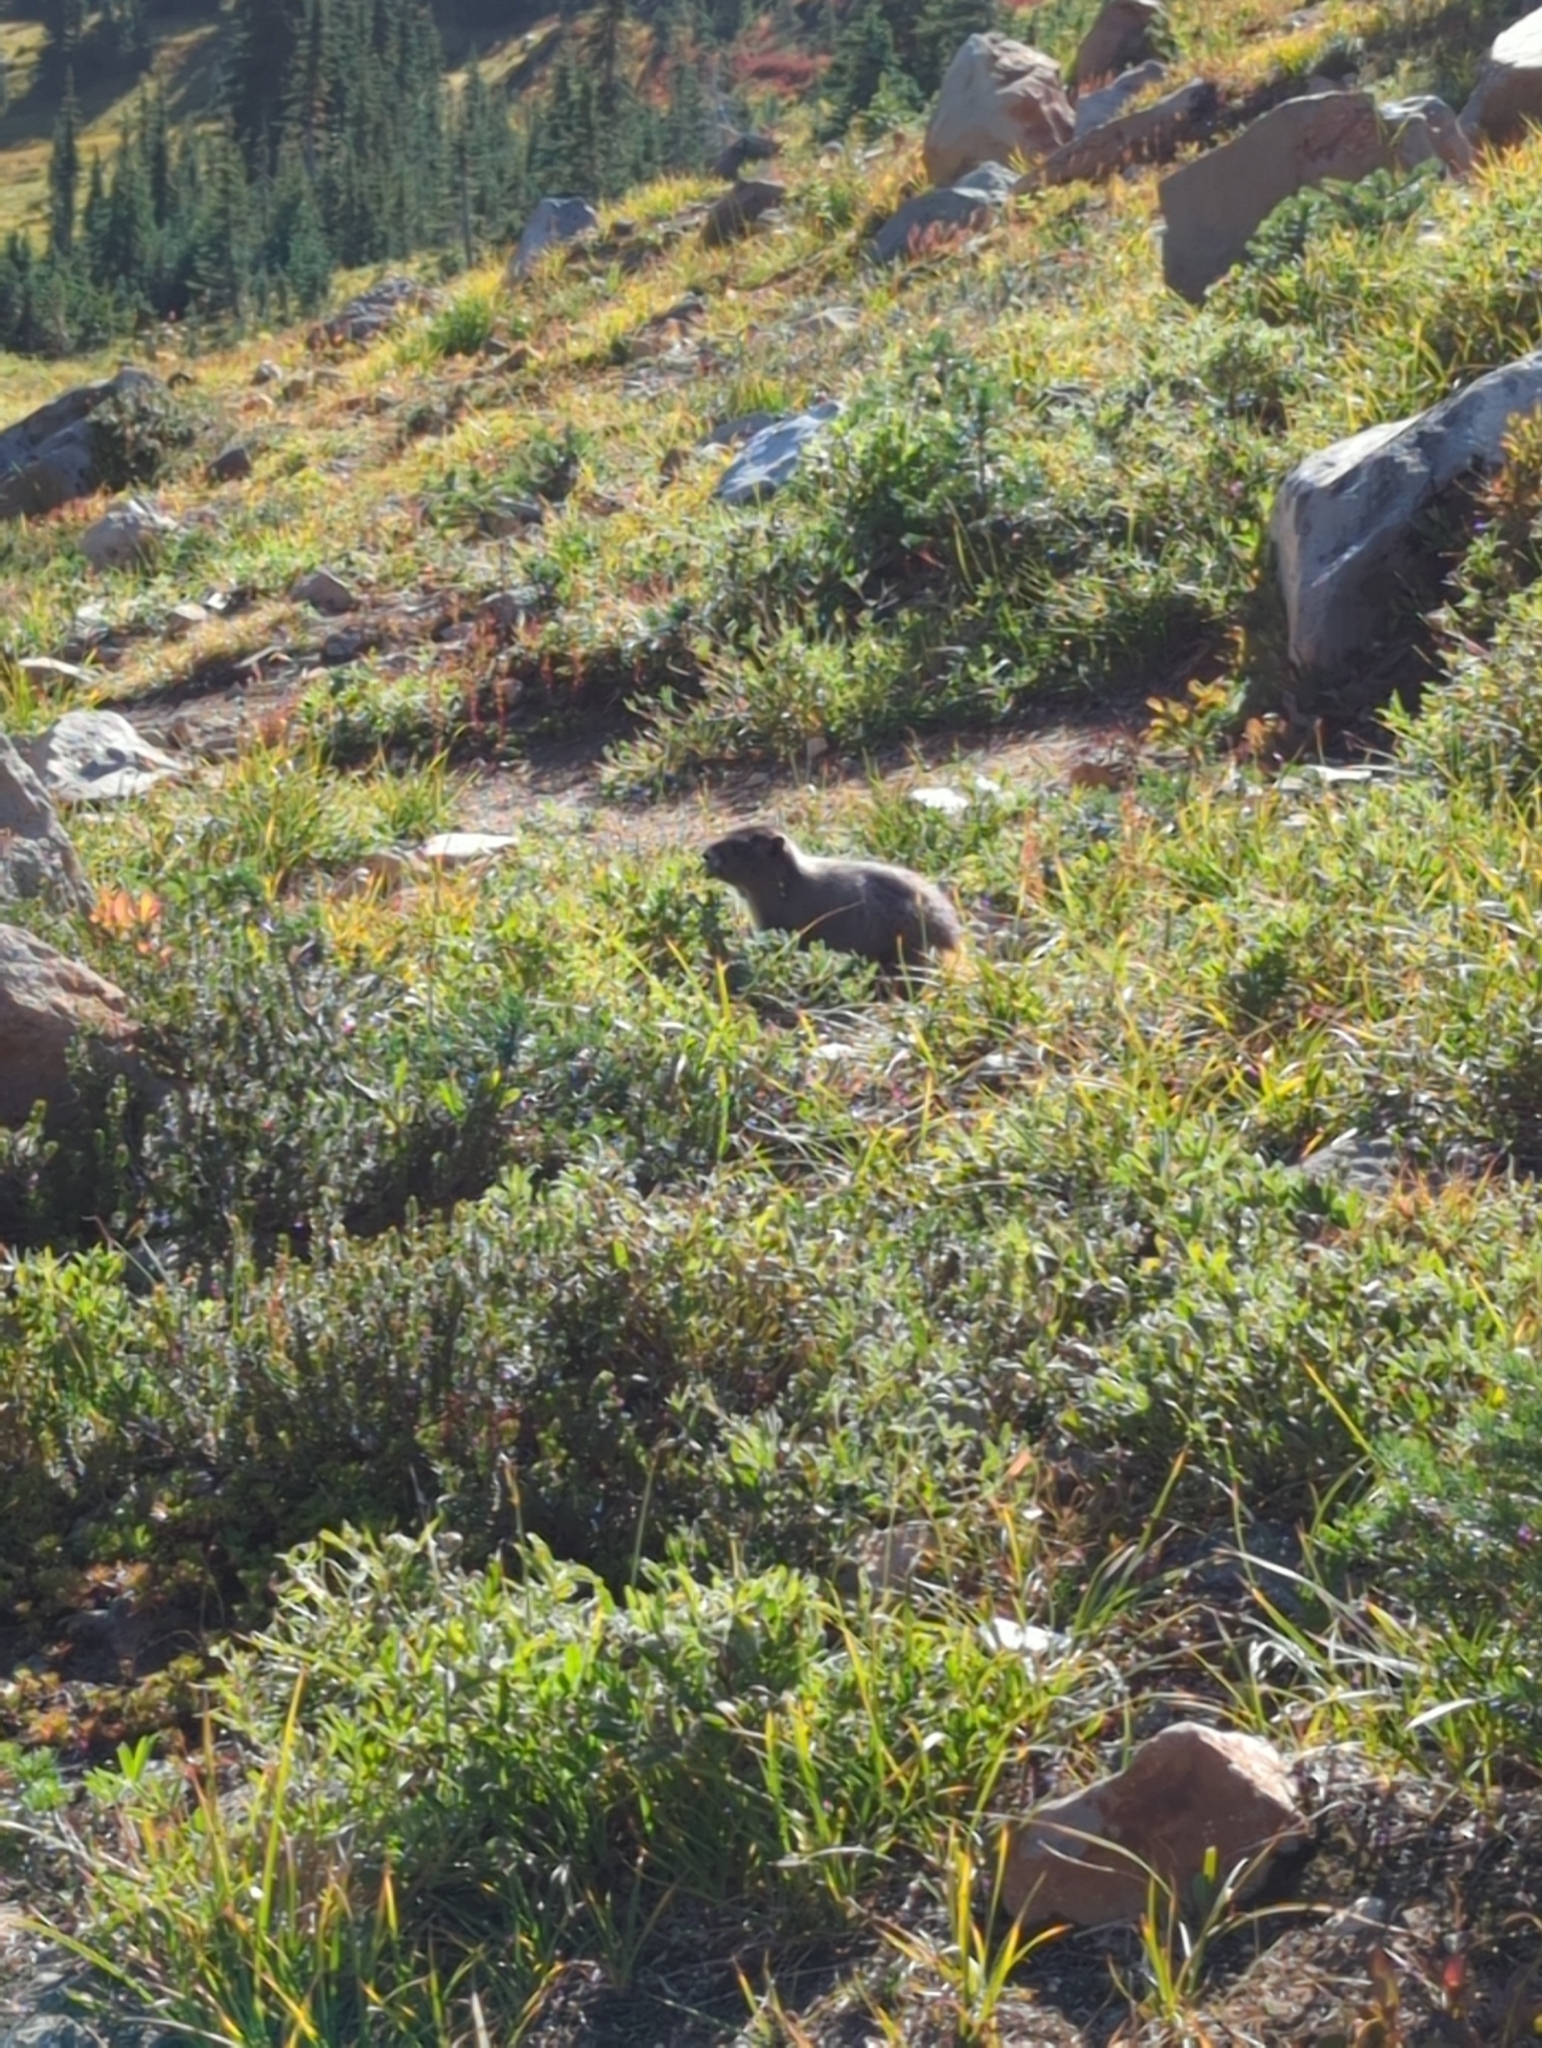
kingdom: Animalia
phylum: Chordata
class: Mammalia
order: Rodentia
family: Sciuridae
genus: Marmota
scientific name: Marmota caligata
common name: Hoary marmot
